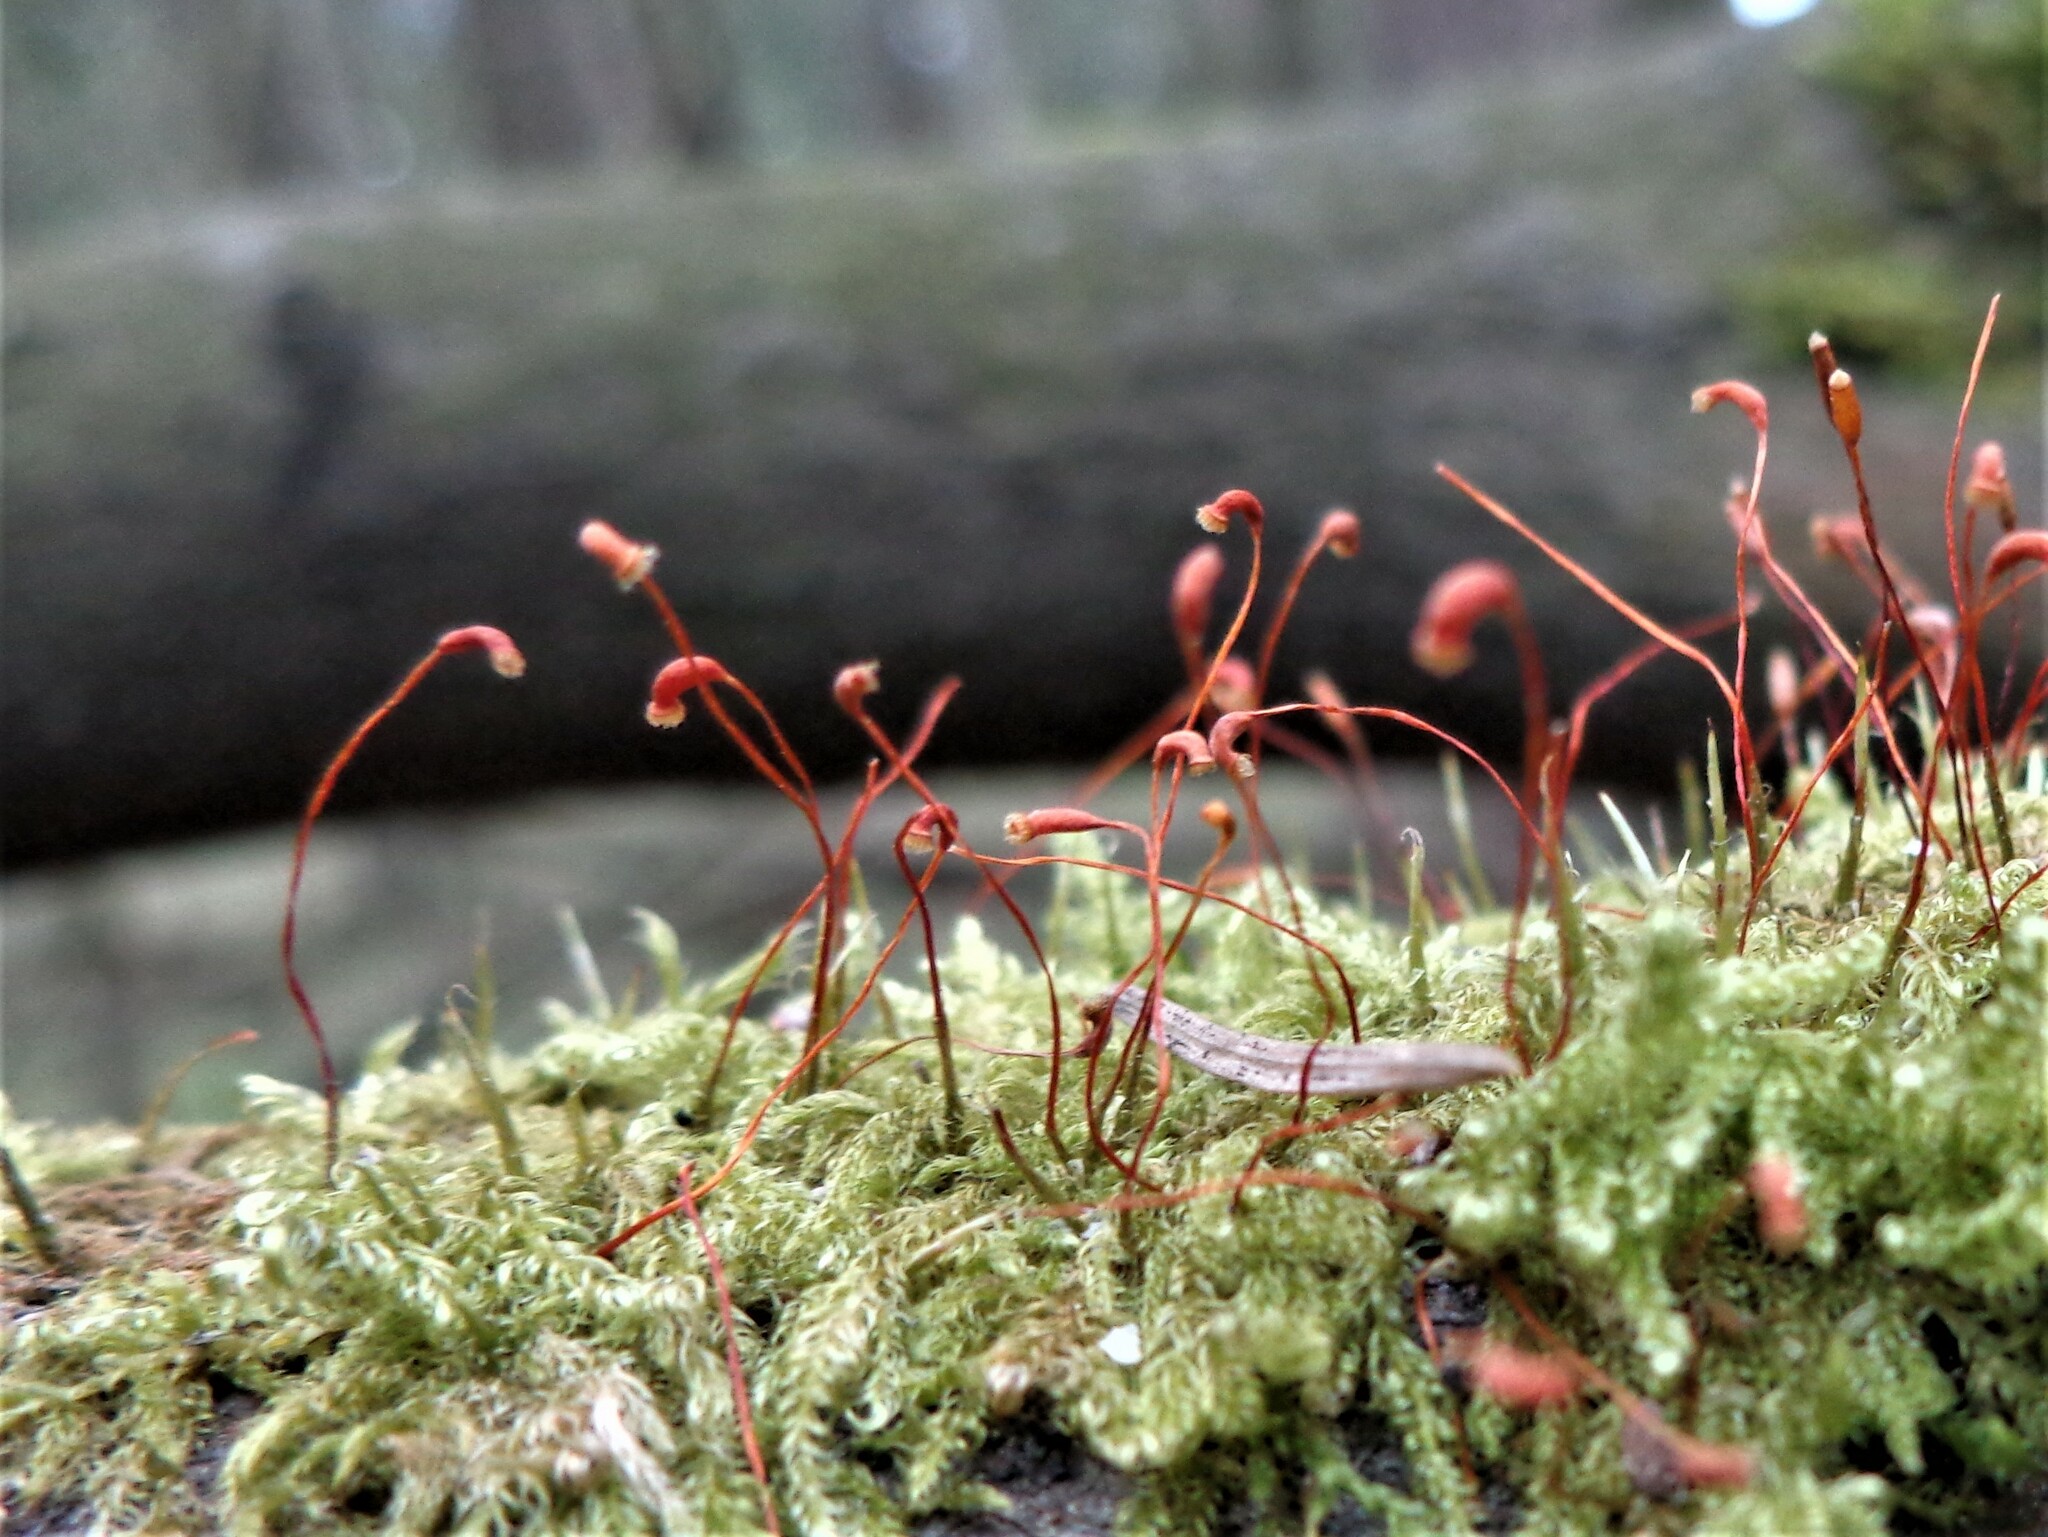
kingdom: Plantae
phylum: Bryophyta
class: Bryopsida
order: Hypnales
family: Scorpidiaceae
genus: Sanionia
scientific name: Sanionia uncinata
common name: Sickle moss
